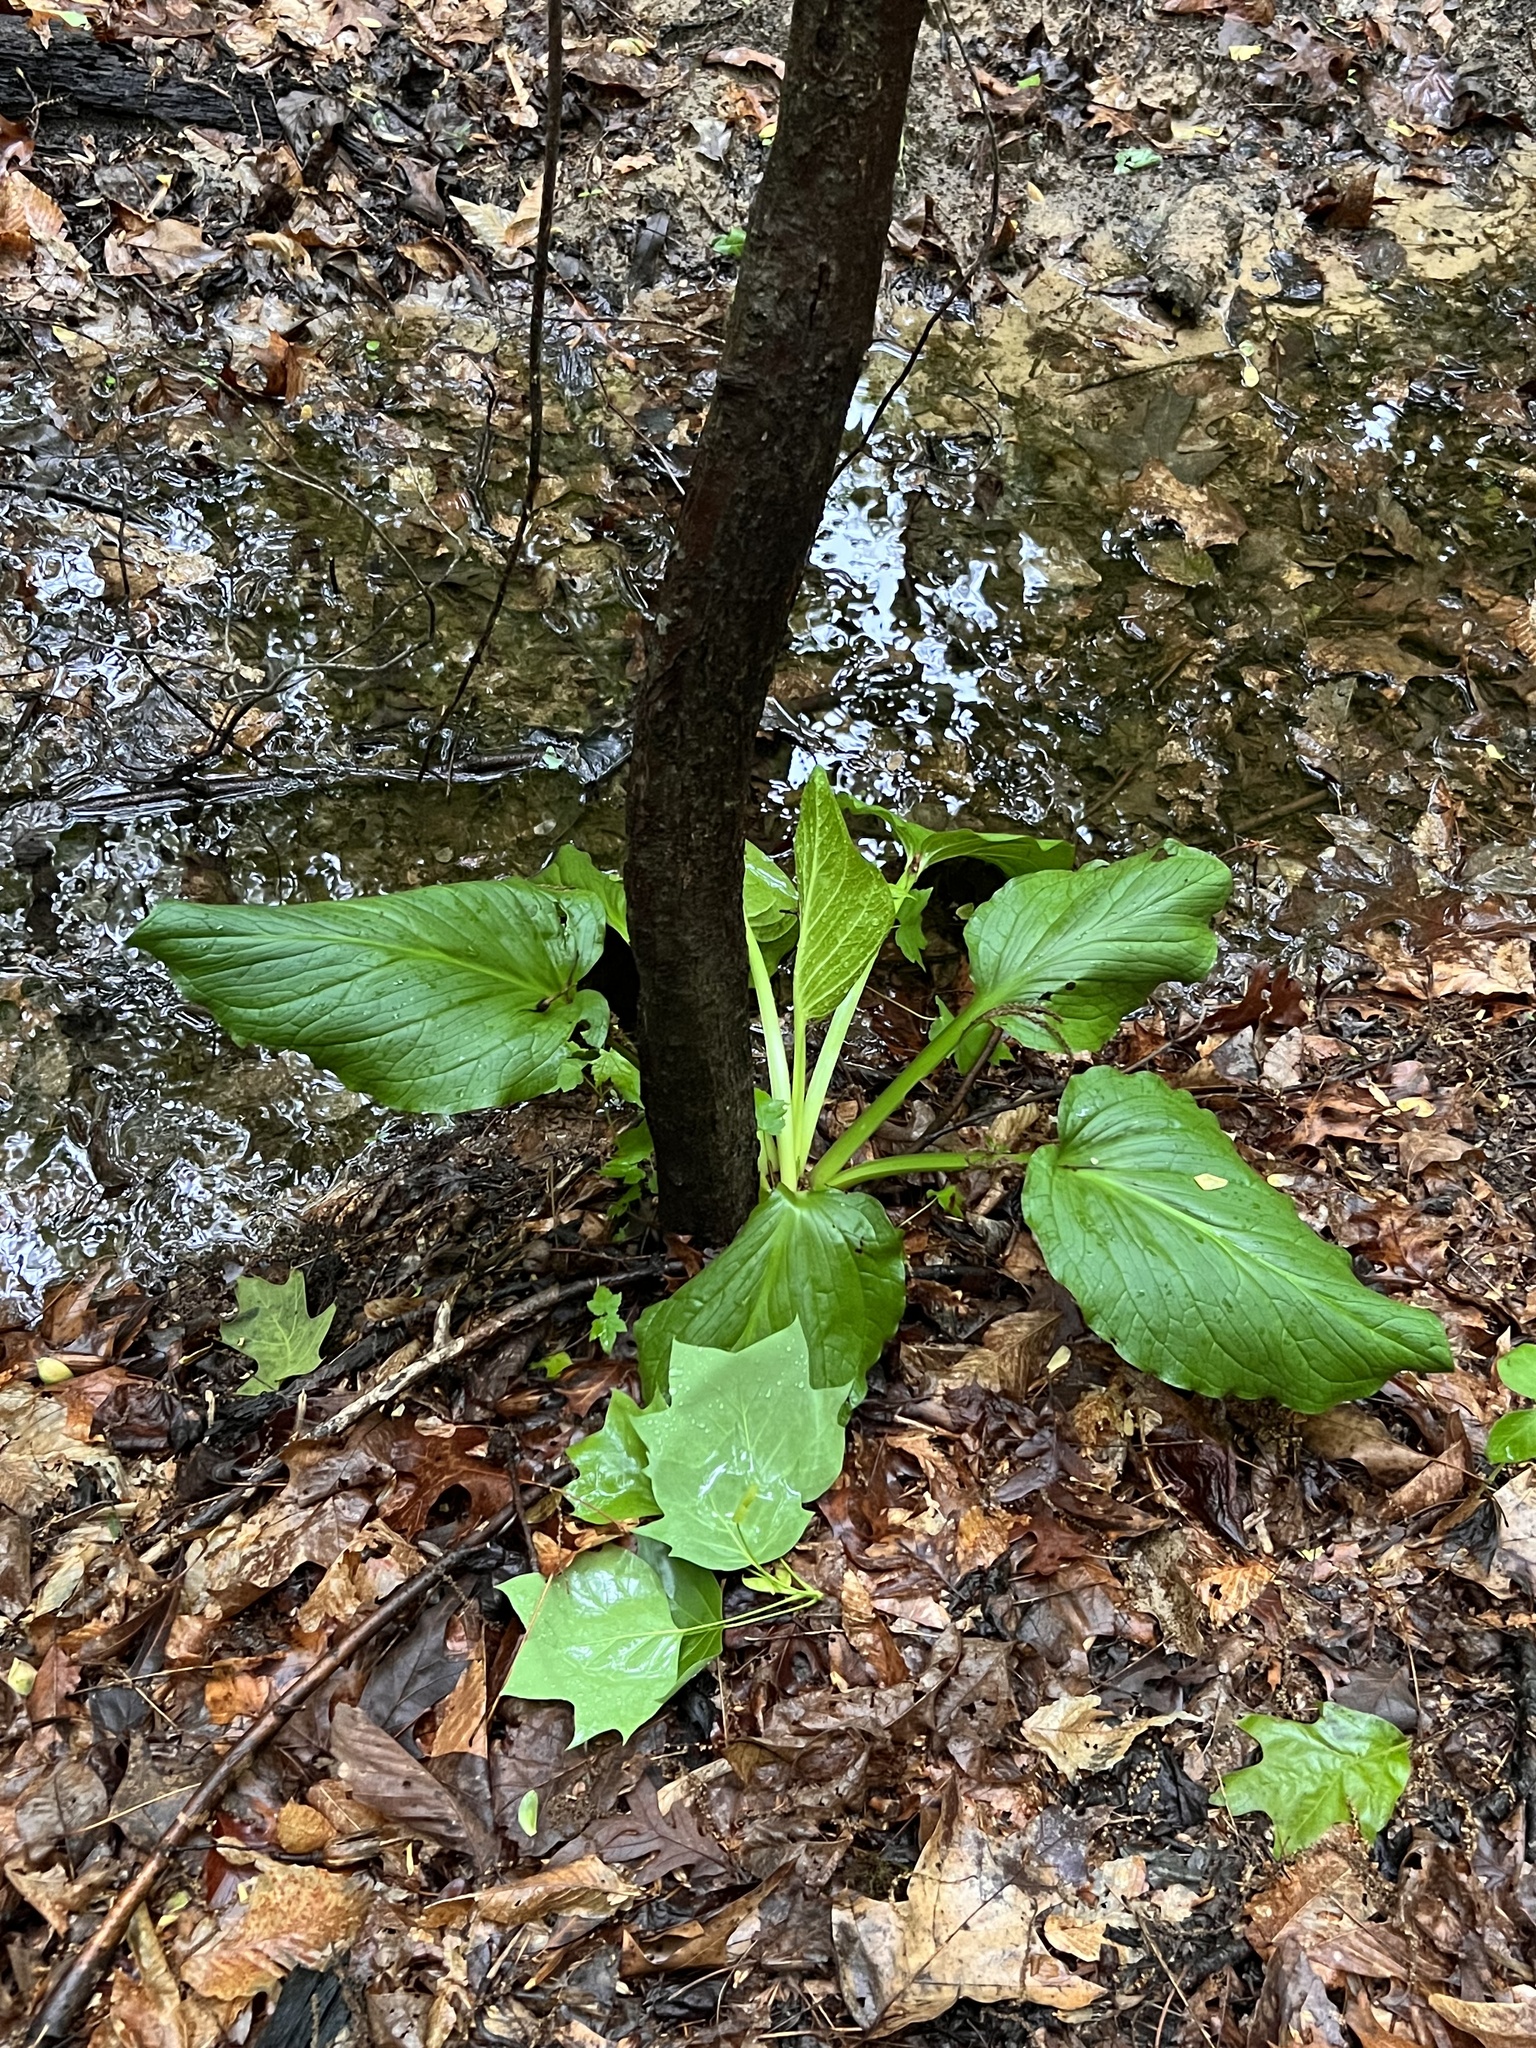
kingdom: Plantae
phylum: Tracheophyta
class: Liliopsida
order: Alismatales
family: Araceae
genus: Symplocarpus
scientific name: Symplocarpus foetidus
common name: Eastern skunk cabbage
